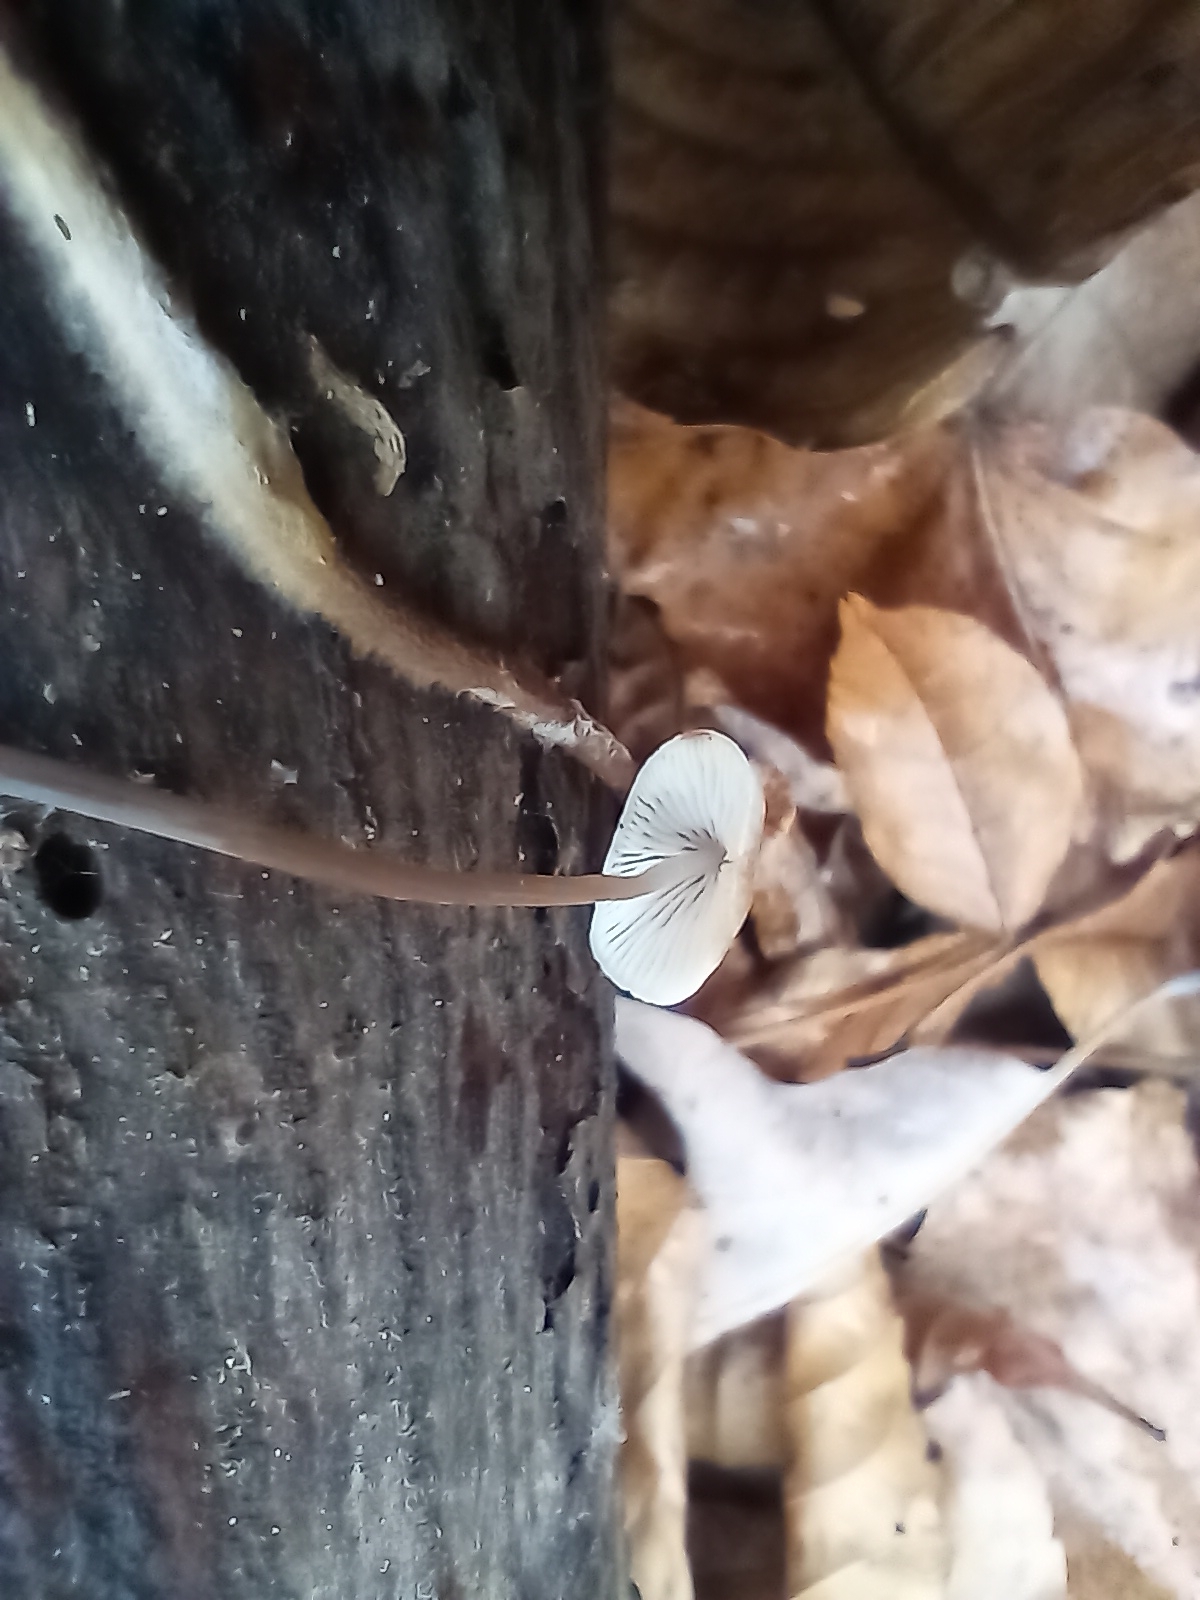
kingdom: Fungi
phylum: Basidiomycota
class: Agaricomycetes
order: Agaricales
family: Physalacriaceae
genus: Rhizomarasmius
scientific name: Rhizomarasmius pyrrhocephalus
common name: Hairy long stem marasmius
